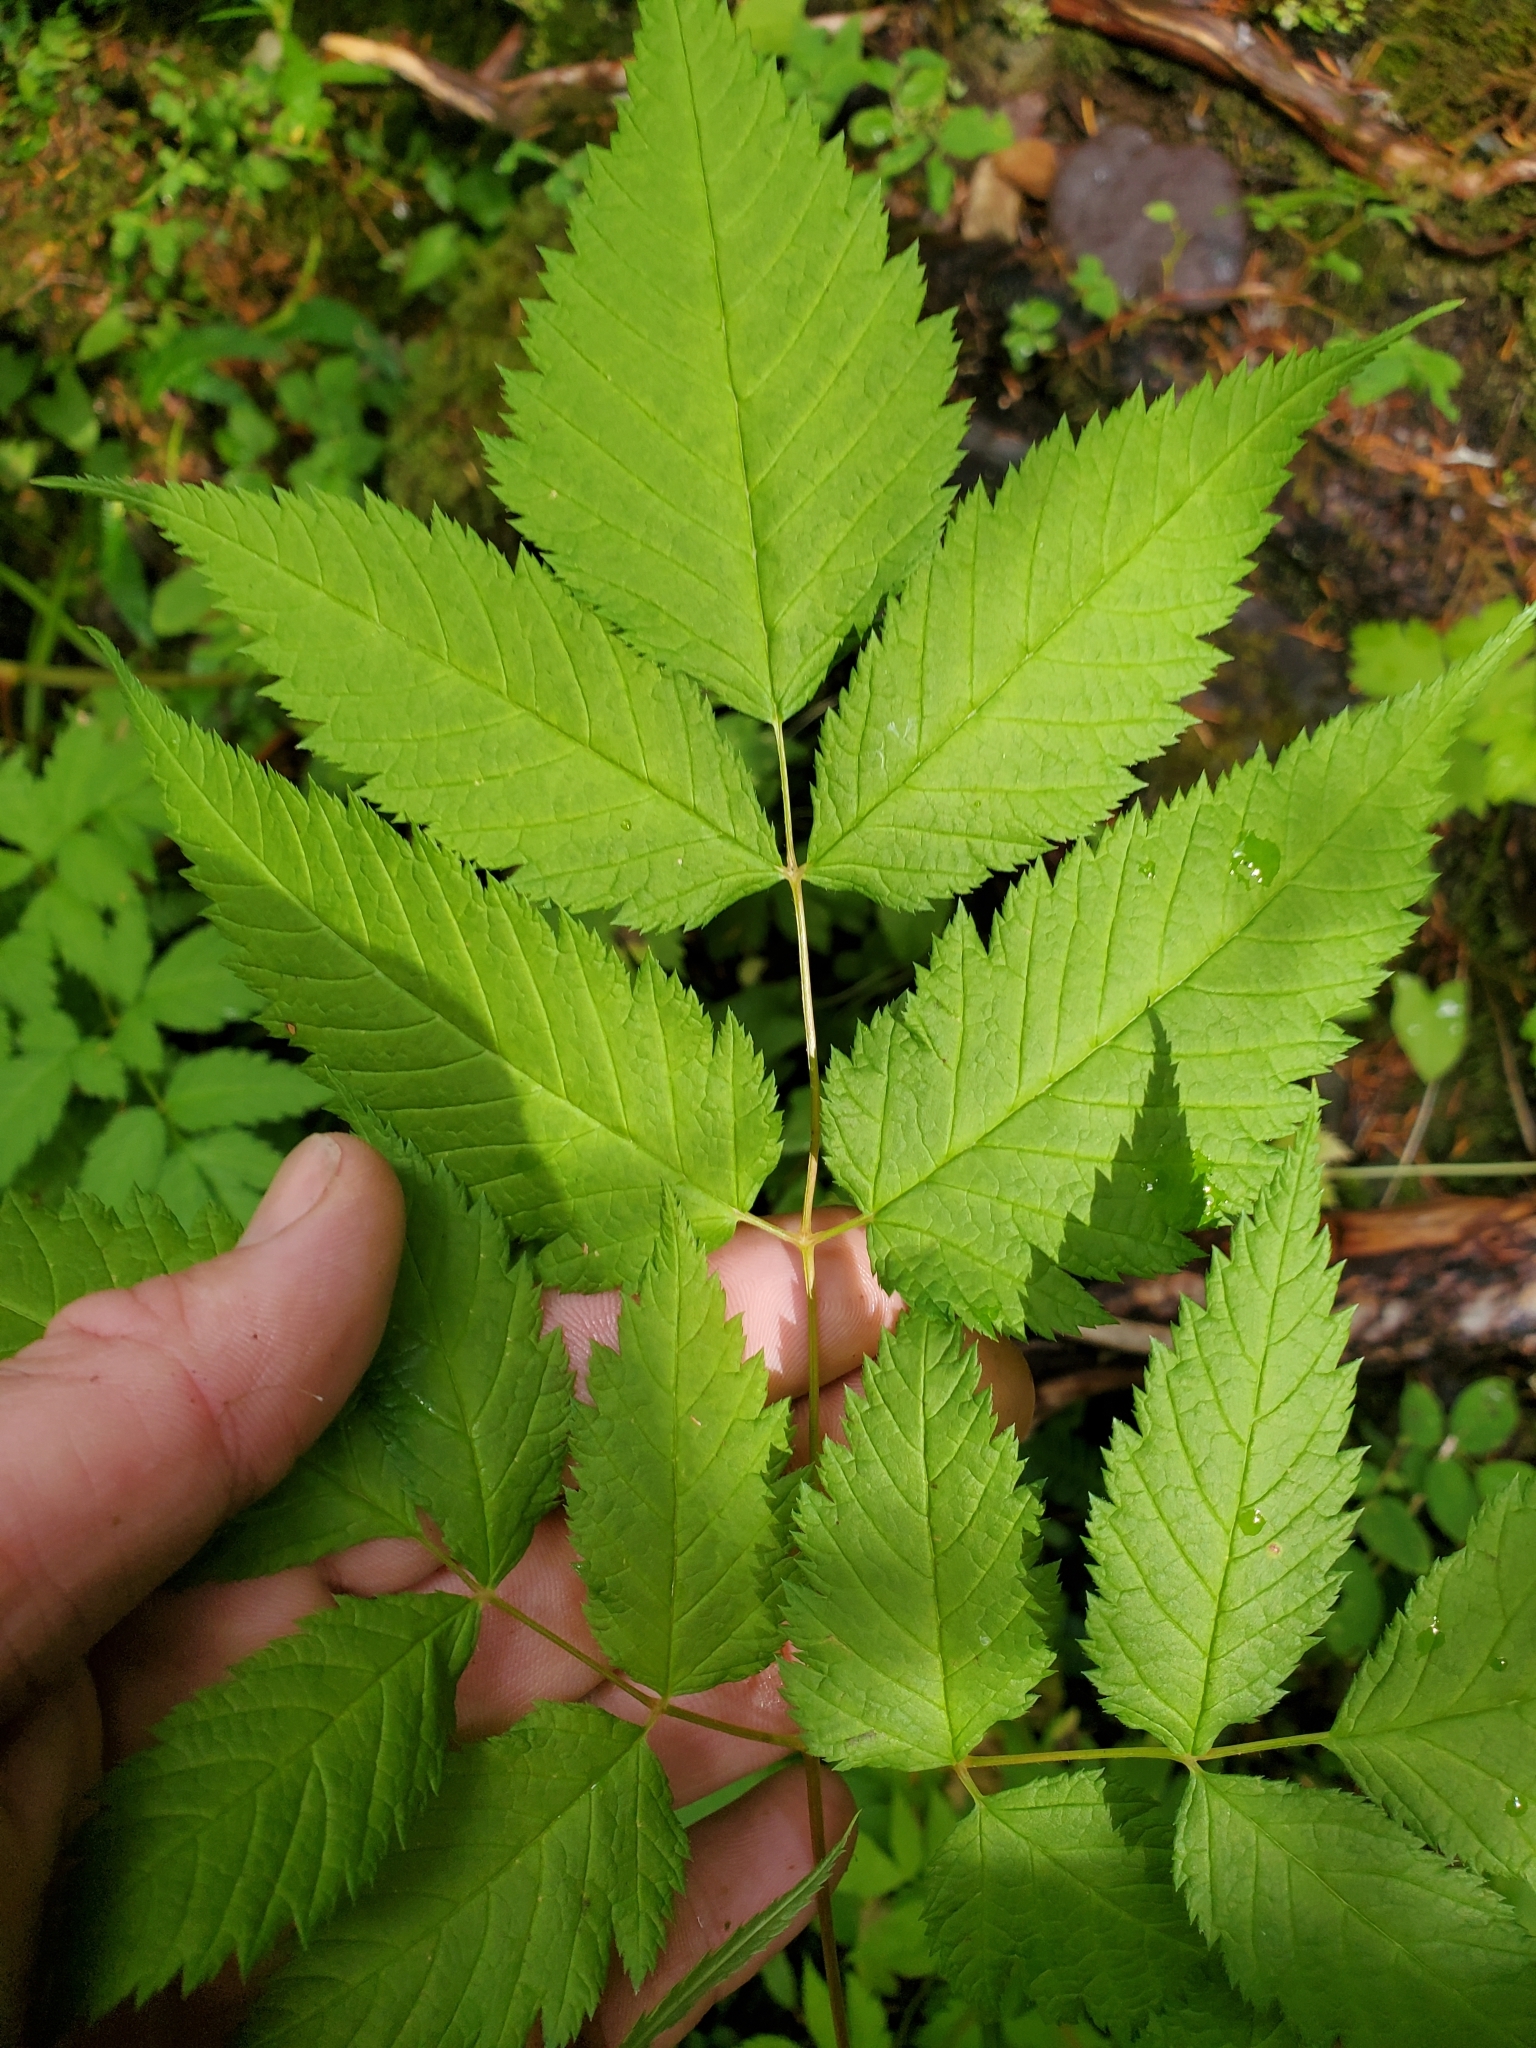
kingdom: Plantae
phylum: Tracheophyta
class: Magnoliopsida
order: Rosales
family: Rosaceae
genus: Aruncus
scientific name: Aruncus dioicus
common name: Buck's-beard
